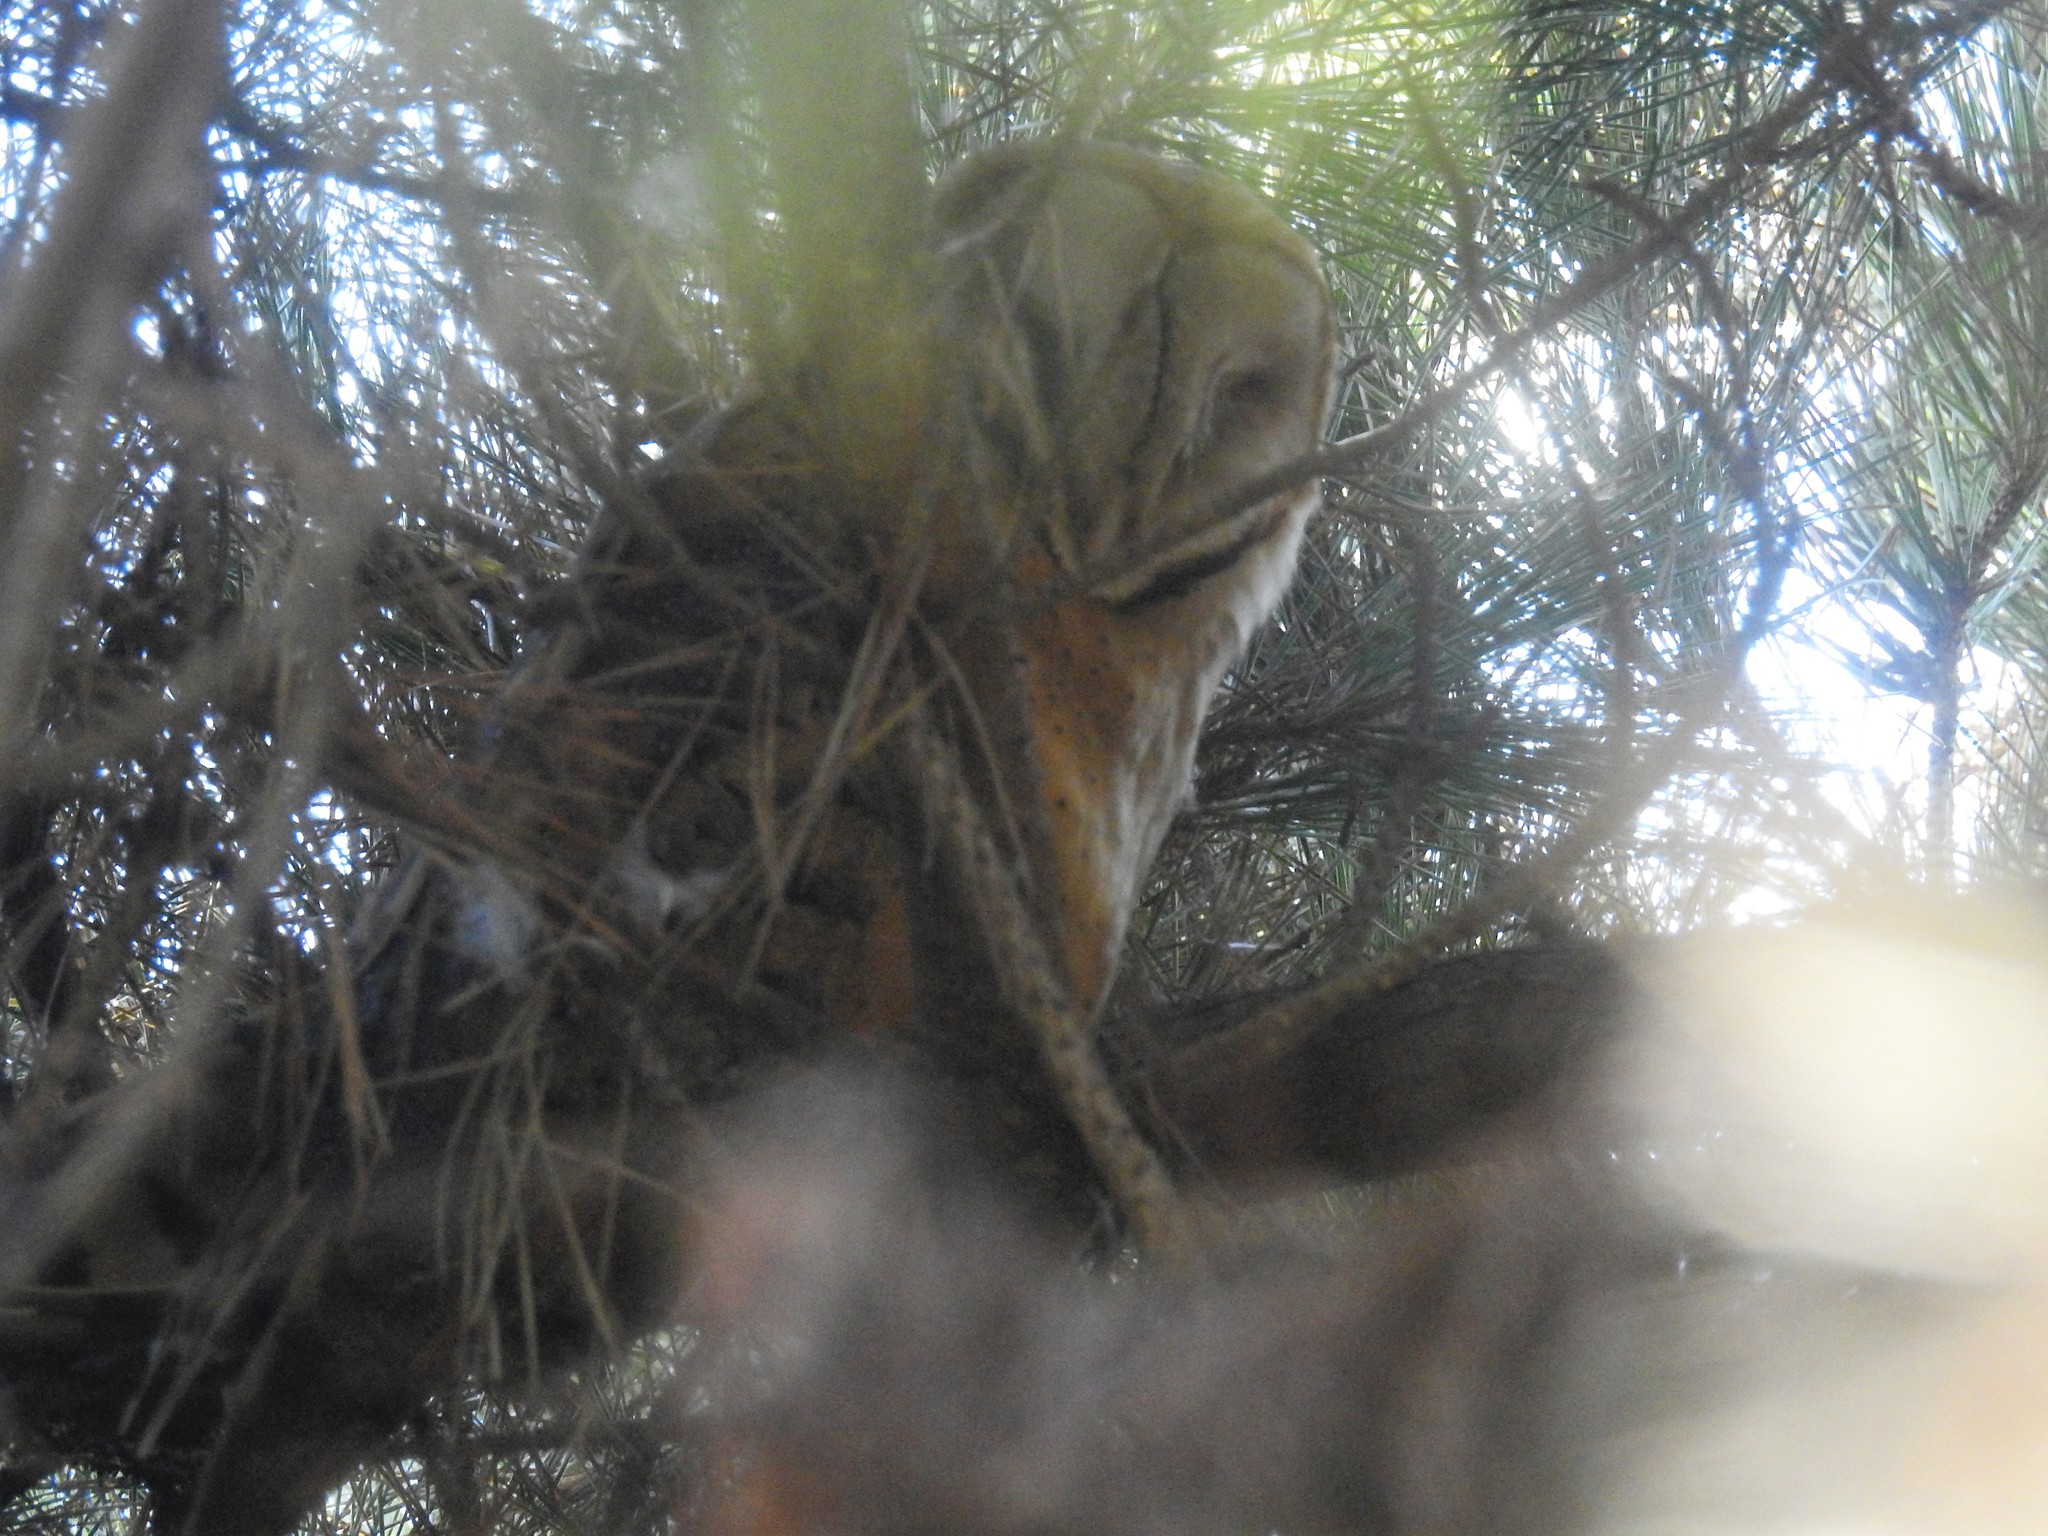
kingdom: Animalia
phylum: Chordata
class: Aves
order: Strigiformes
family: Tytonidae
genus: Tyto
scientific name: Tyto alba
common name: Barn owl
